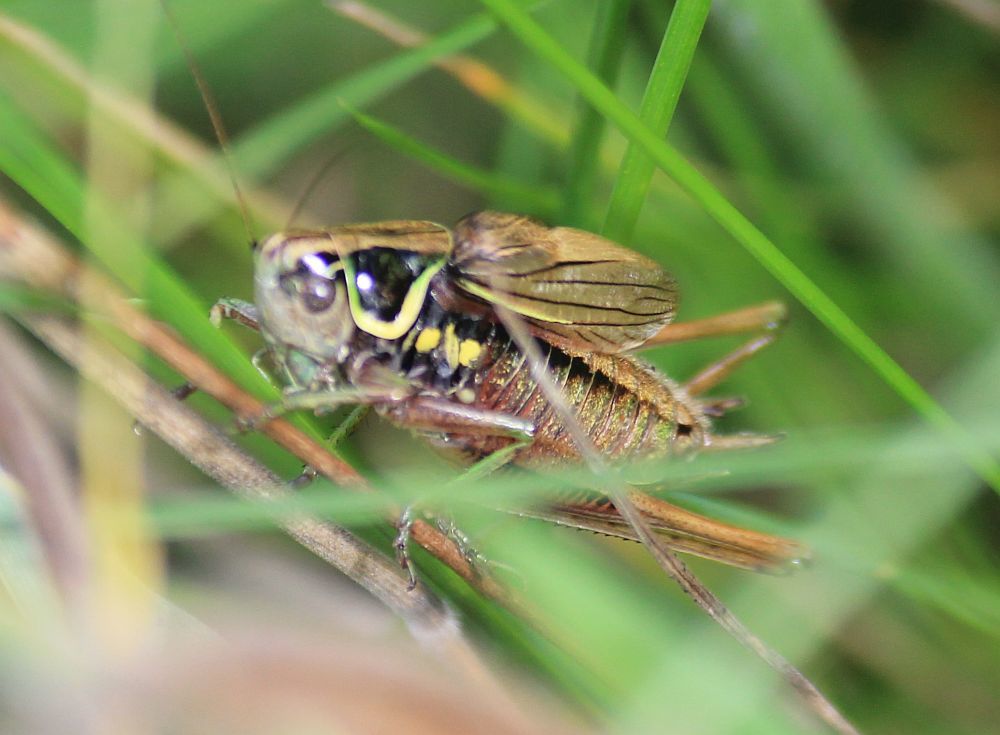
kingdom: Animalia
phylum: Arthropoda
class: Insecta
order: Orthoptera
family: Tettigoniidae
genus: Roeseliana
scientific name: Roeseliana roeselii
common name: Roesel's bush cricket
